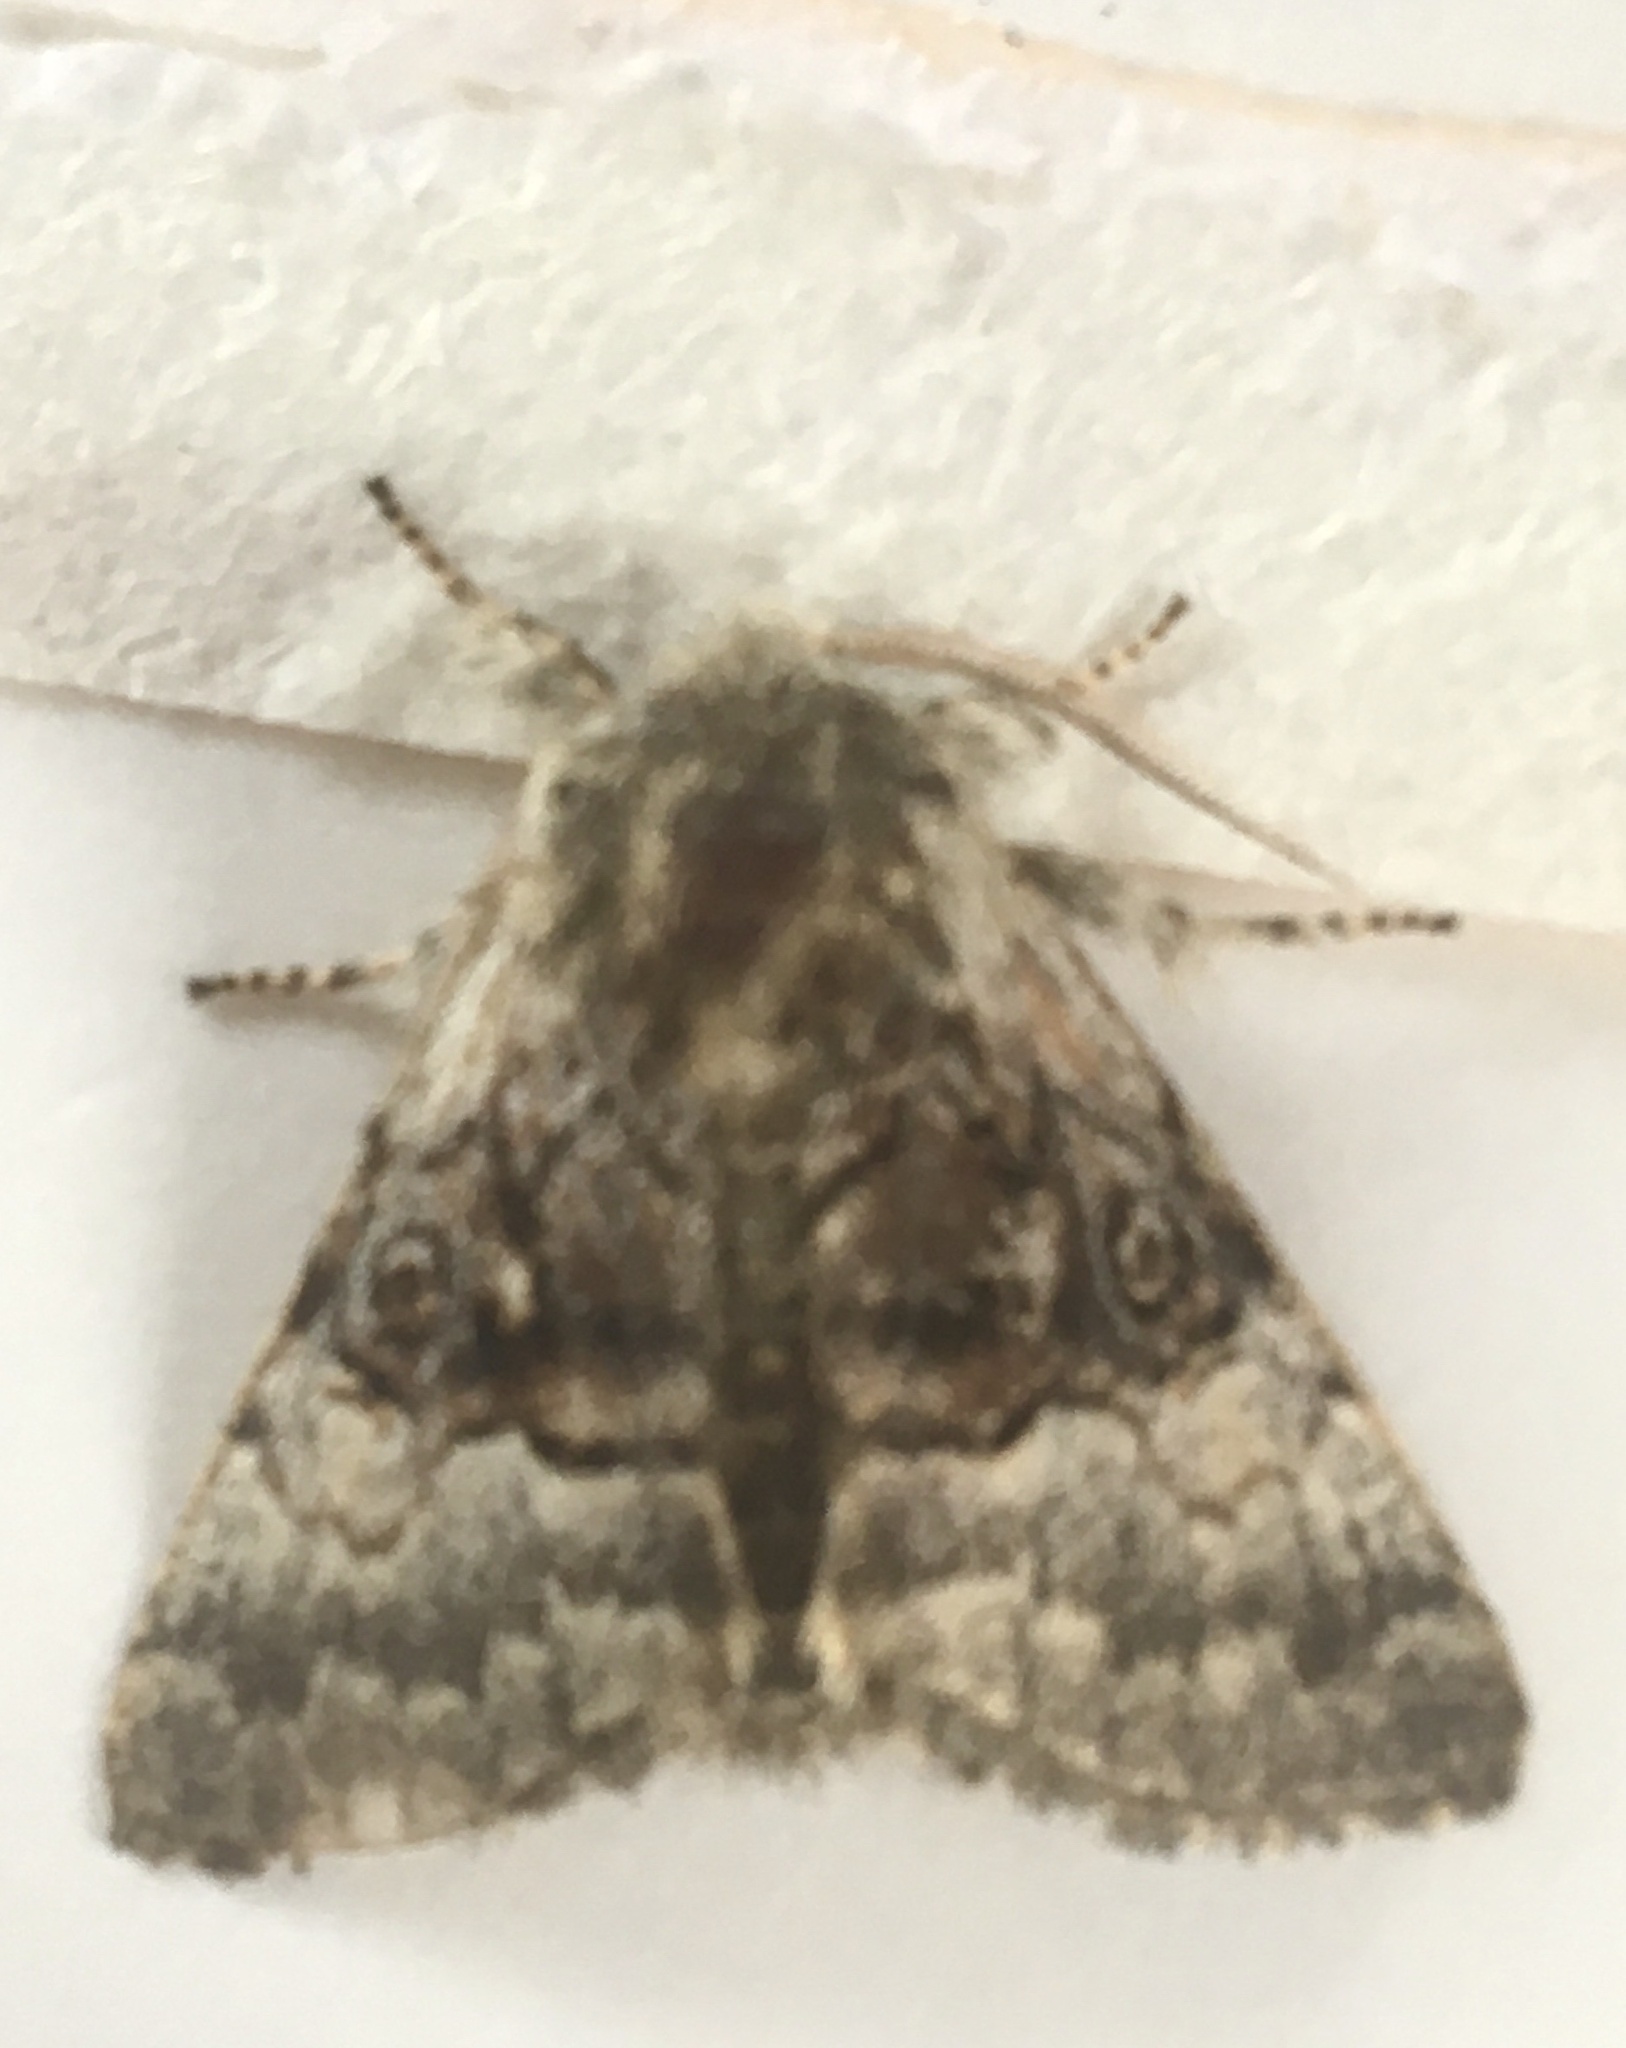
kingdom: Animalia
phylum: Arthropoda
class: Insecta
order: Lepidoptera
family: Noctuidae
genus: Colocasia
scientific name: Colocasia coryli
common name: Nut-tree tussock
